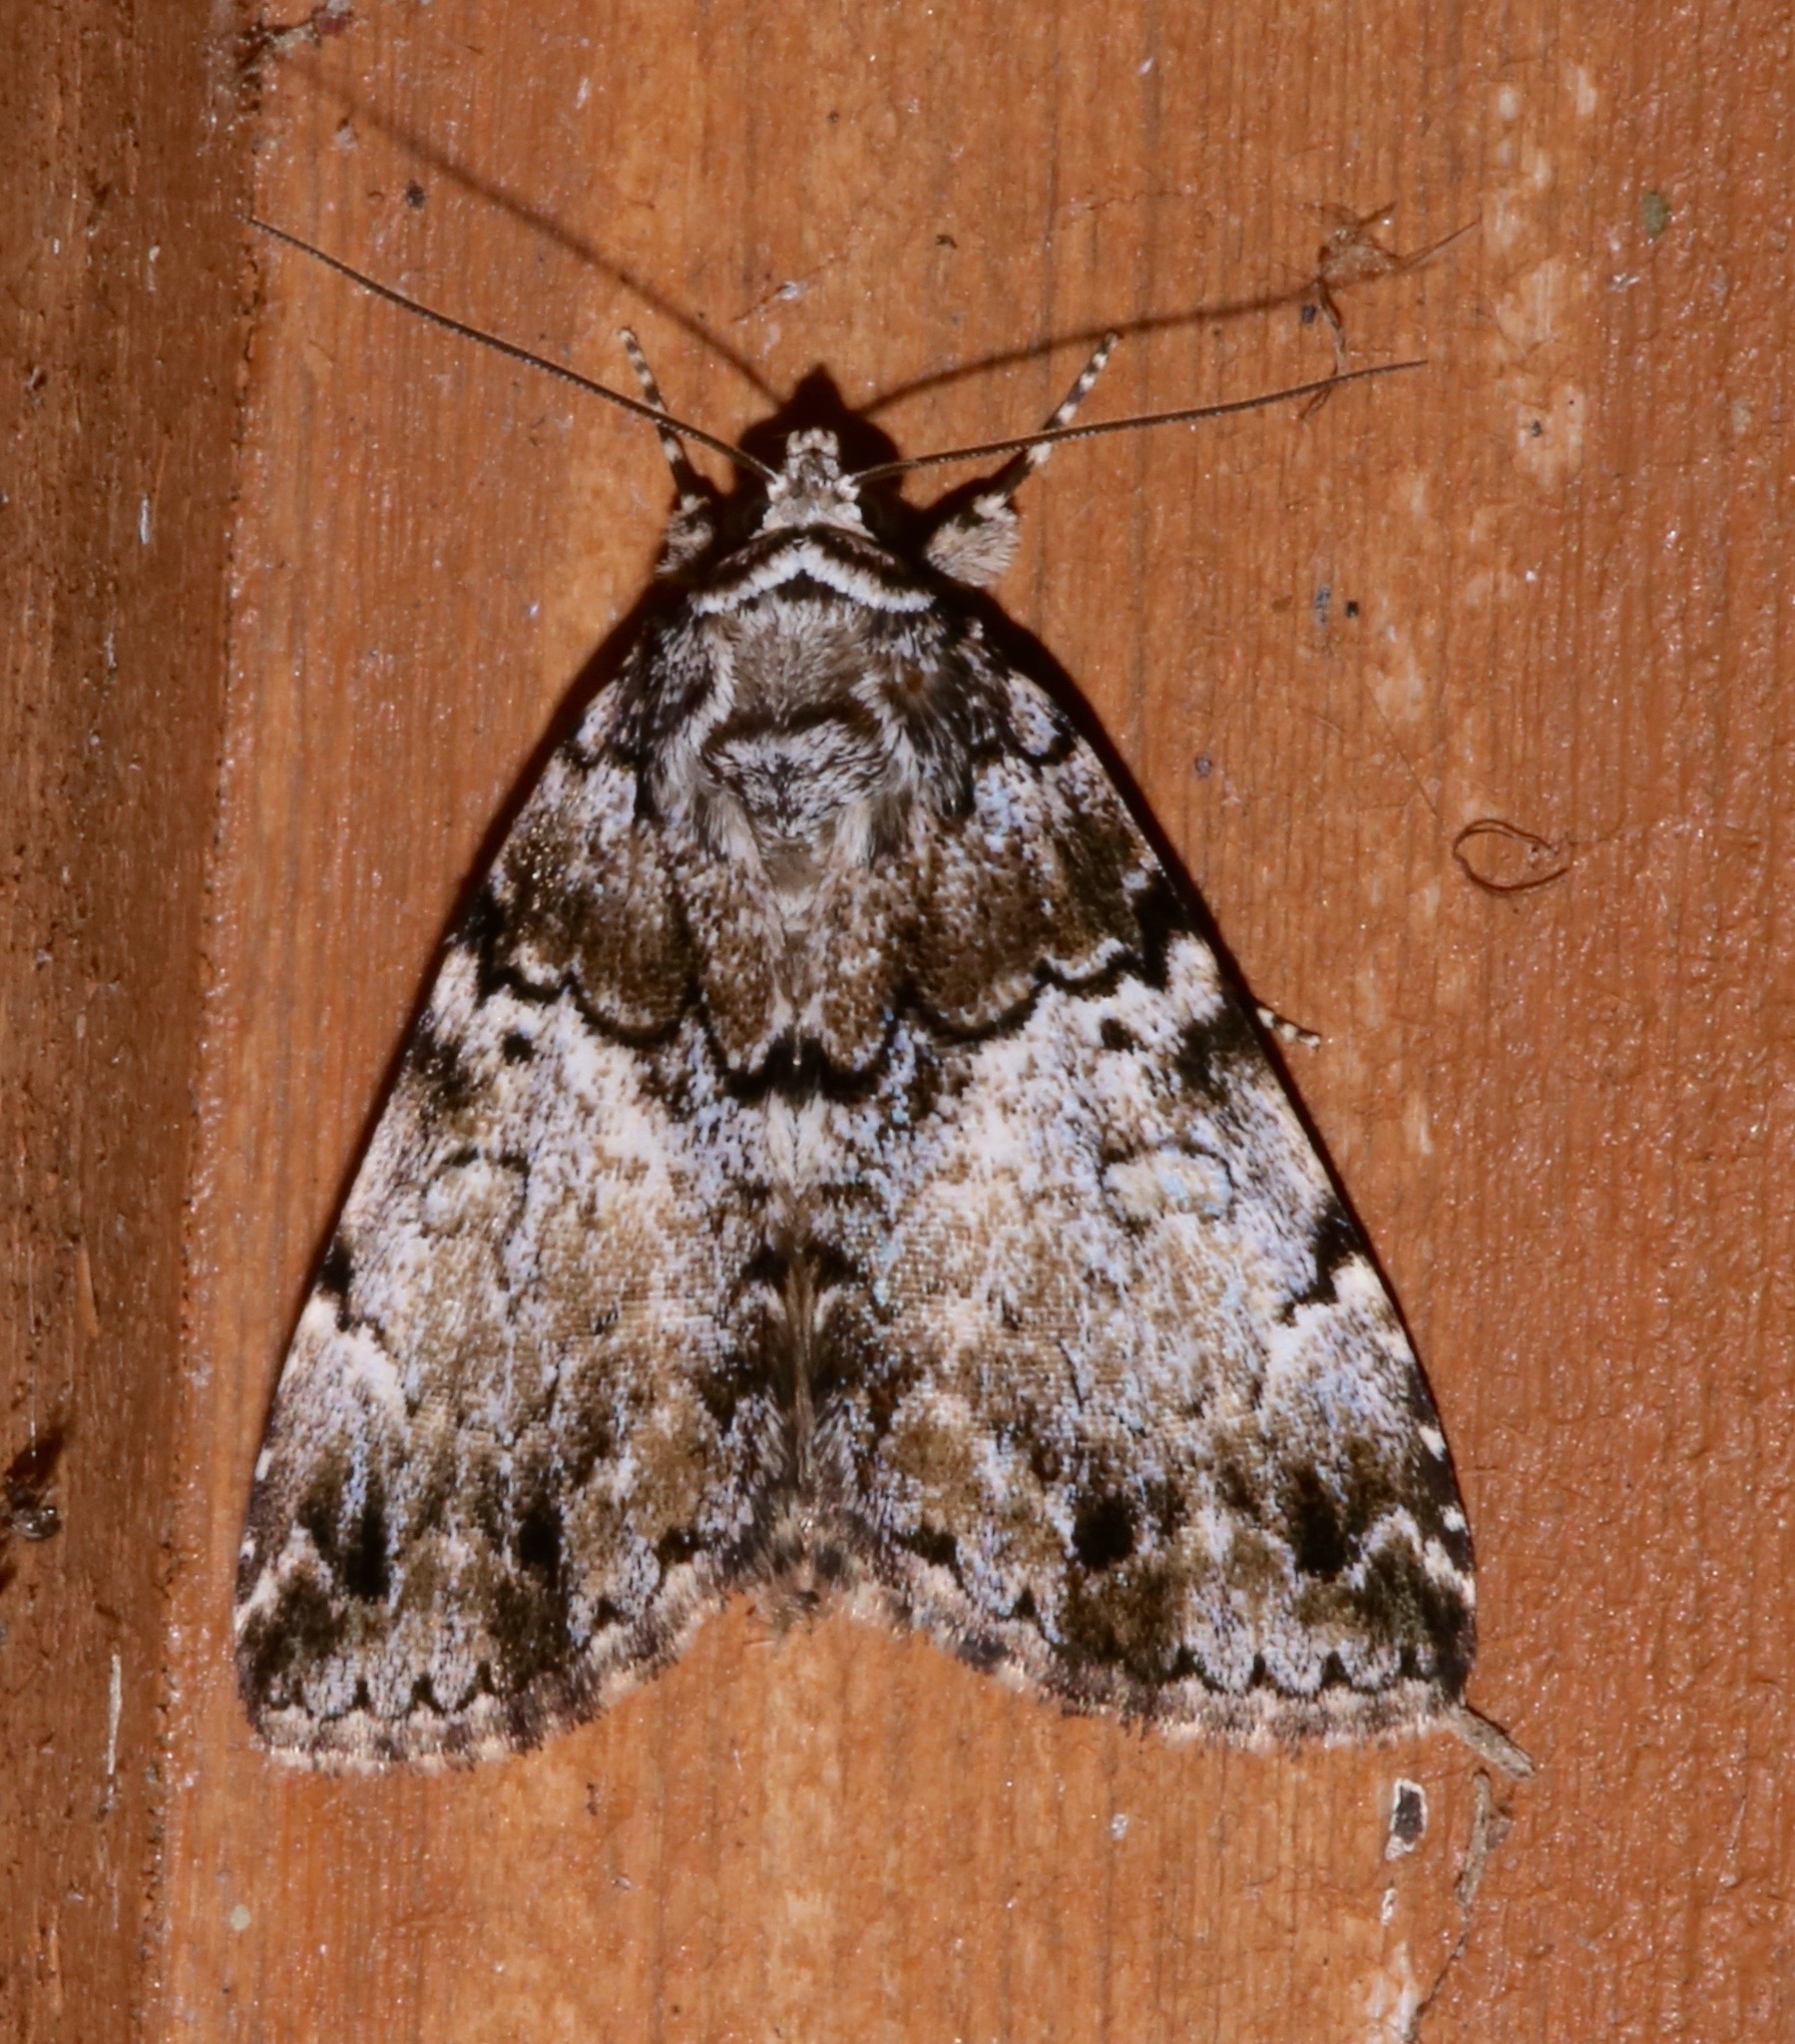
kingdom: Animalia
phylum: Arthropoda
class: Insecta
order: Lepidoptera
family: Erebidae
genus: Allotria
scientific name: Allotria elonympha
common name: False underwing
